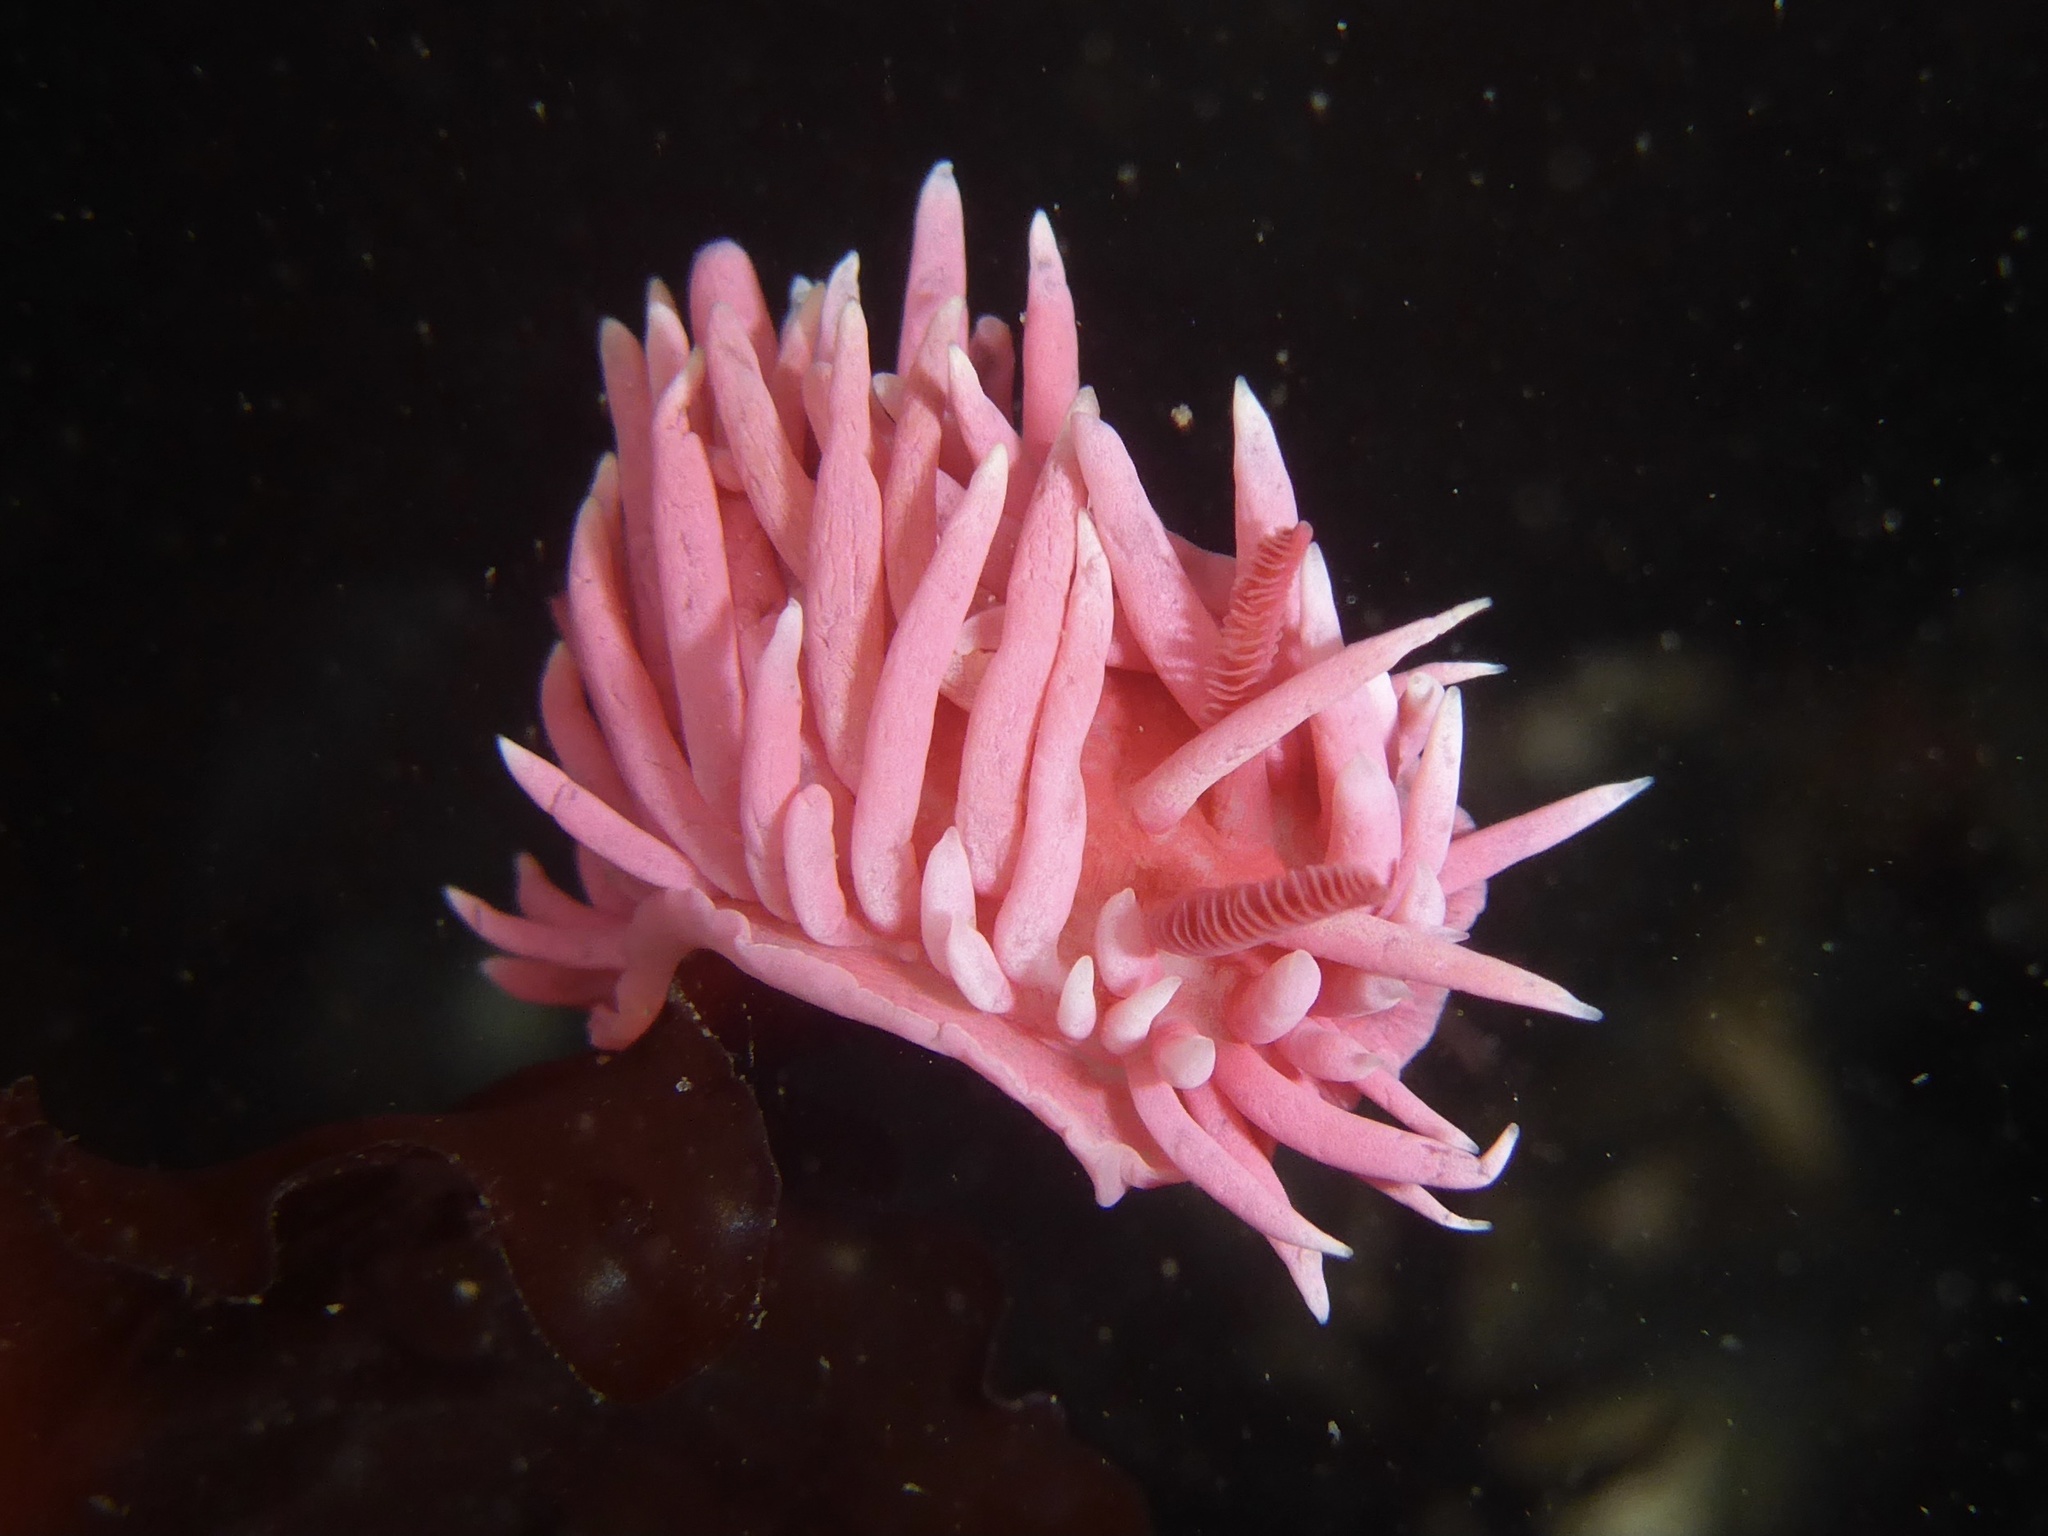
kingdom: Animalia
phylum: Mollusca
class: Gastropoda
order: Nudibranchia
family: Goniodorididae
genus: Okenia
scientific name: Okenia
